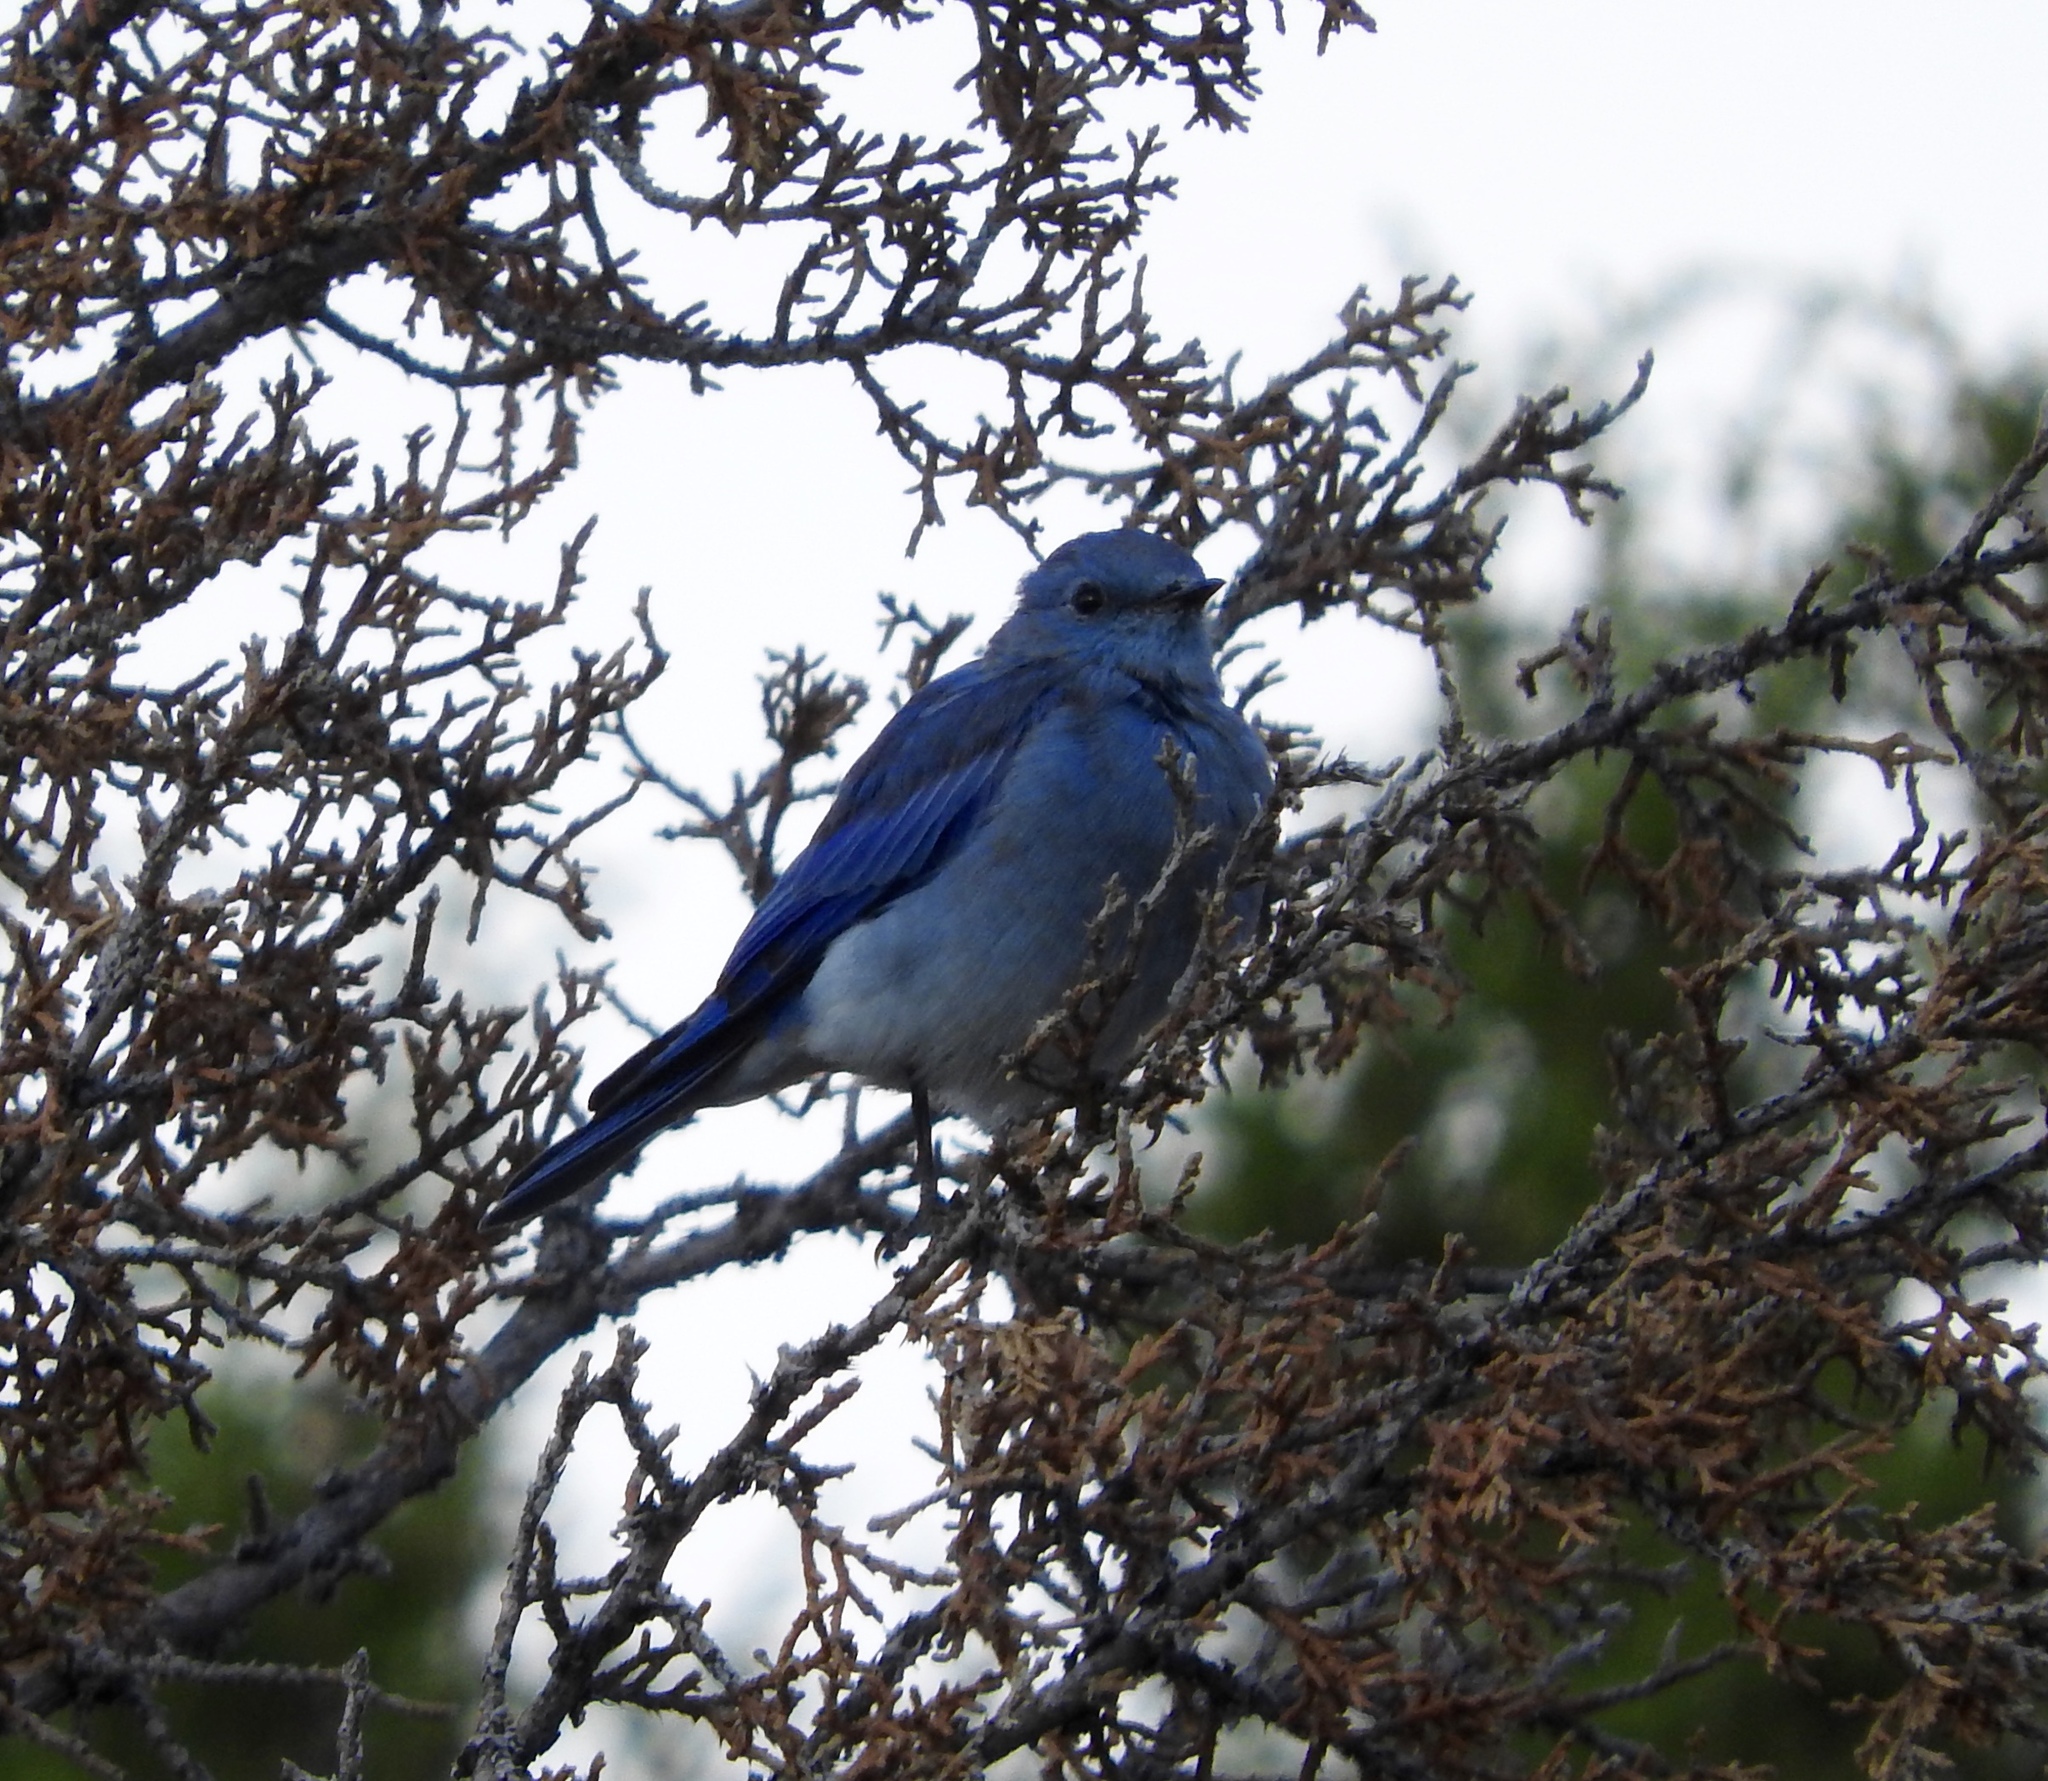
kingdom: Animalia
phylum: Chordata
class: Aves
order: Passeriformes
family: Turdidae
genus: Sialia
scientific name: Sialia currucoides
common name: Mountain bluebird
